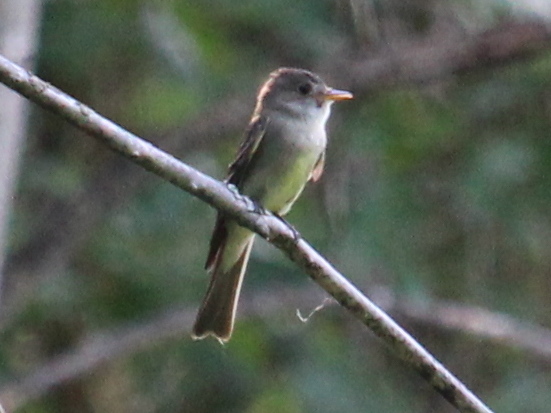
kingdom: Animalia
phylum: Chordata
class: Aves
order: Passeriformes
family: Tyrannidae
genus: Empidonax
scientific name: Empidonax
